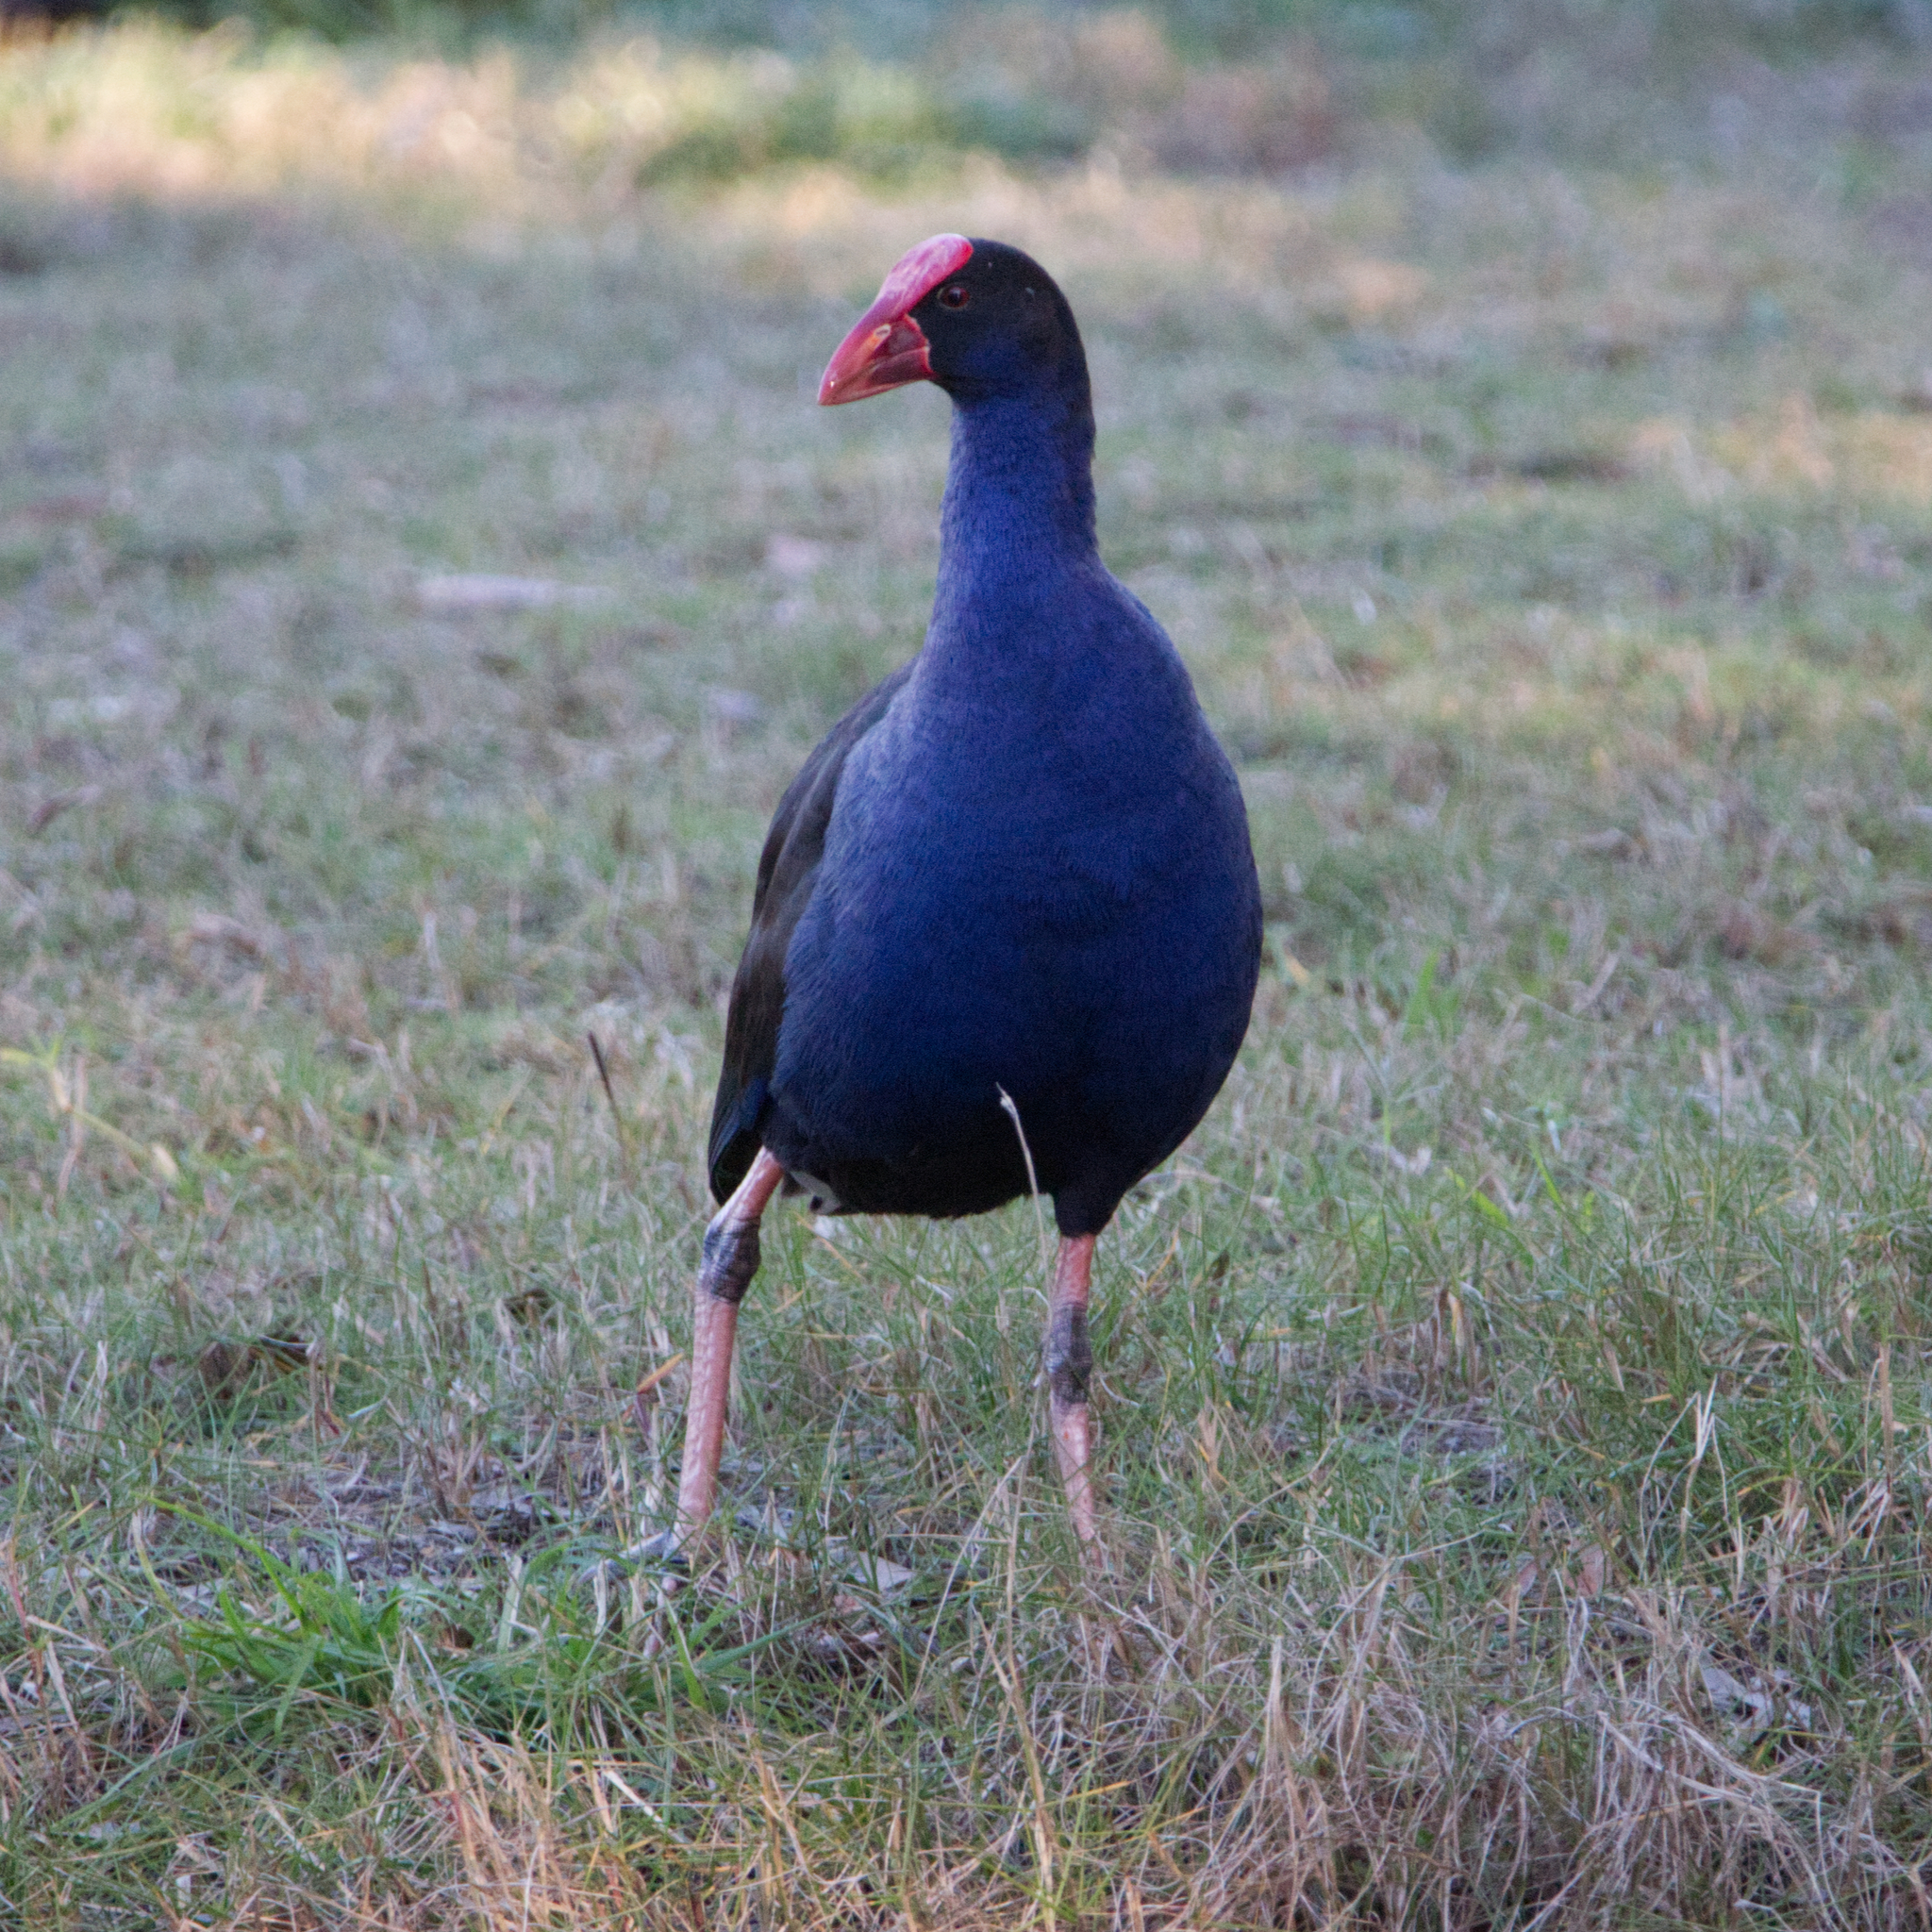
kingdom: Animalia
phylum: Chordata
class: Aves
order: Gruiformes
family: Rallidae
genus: Porphyrio
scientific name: Porphyrio melanotus
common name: Australasian swamphen
